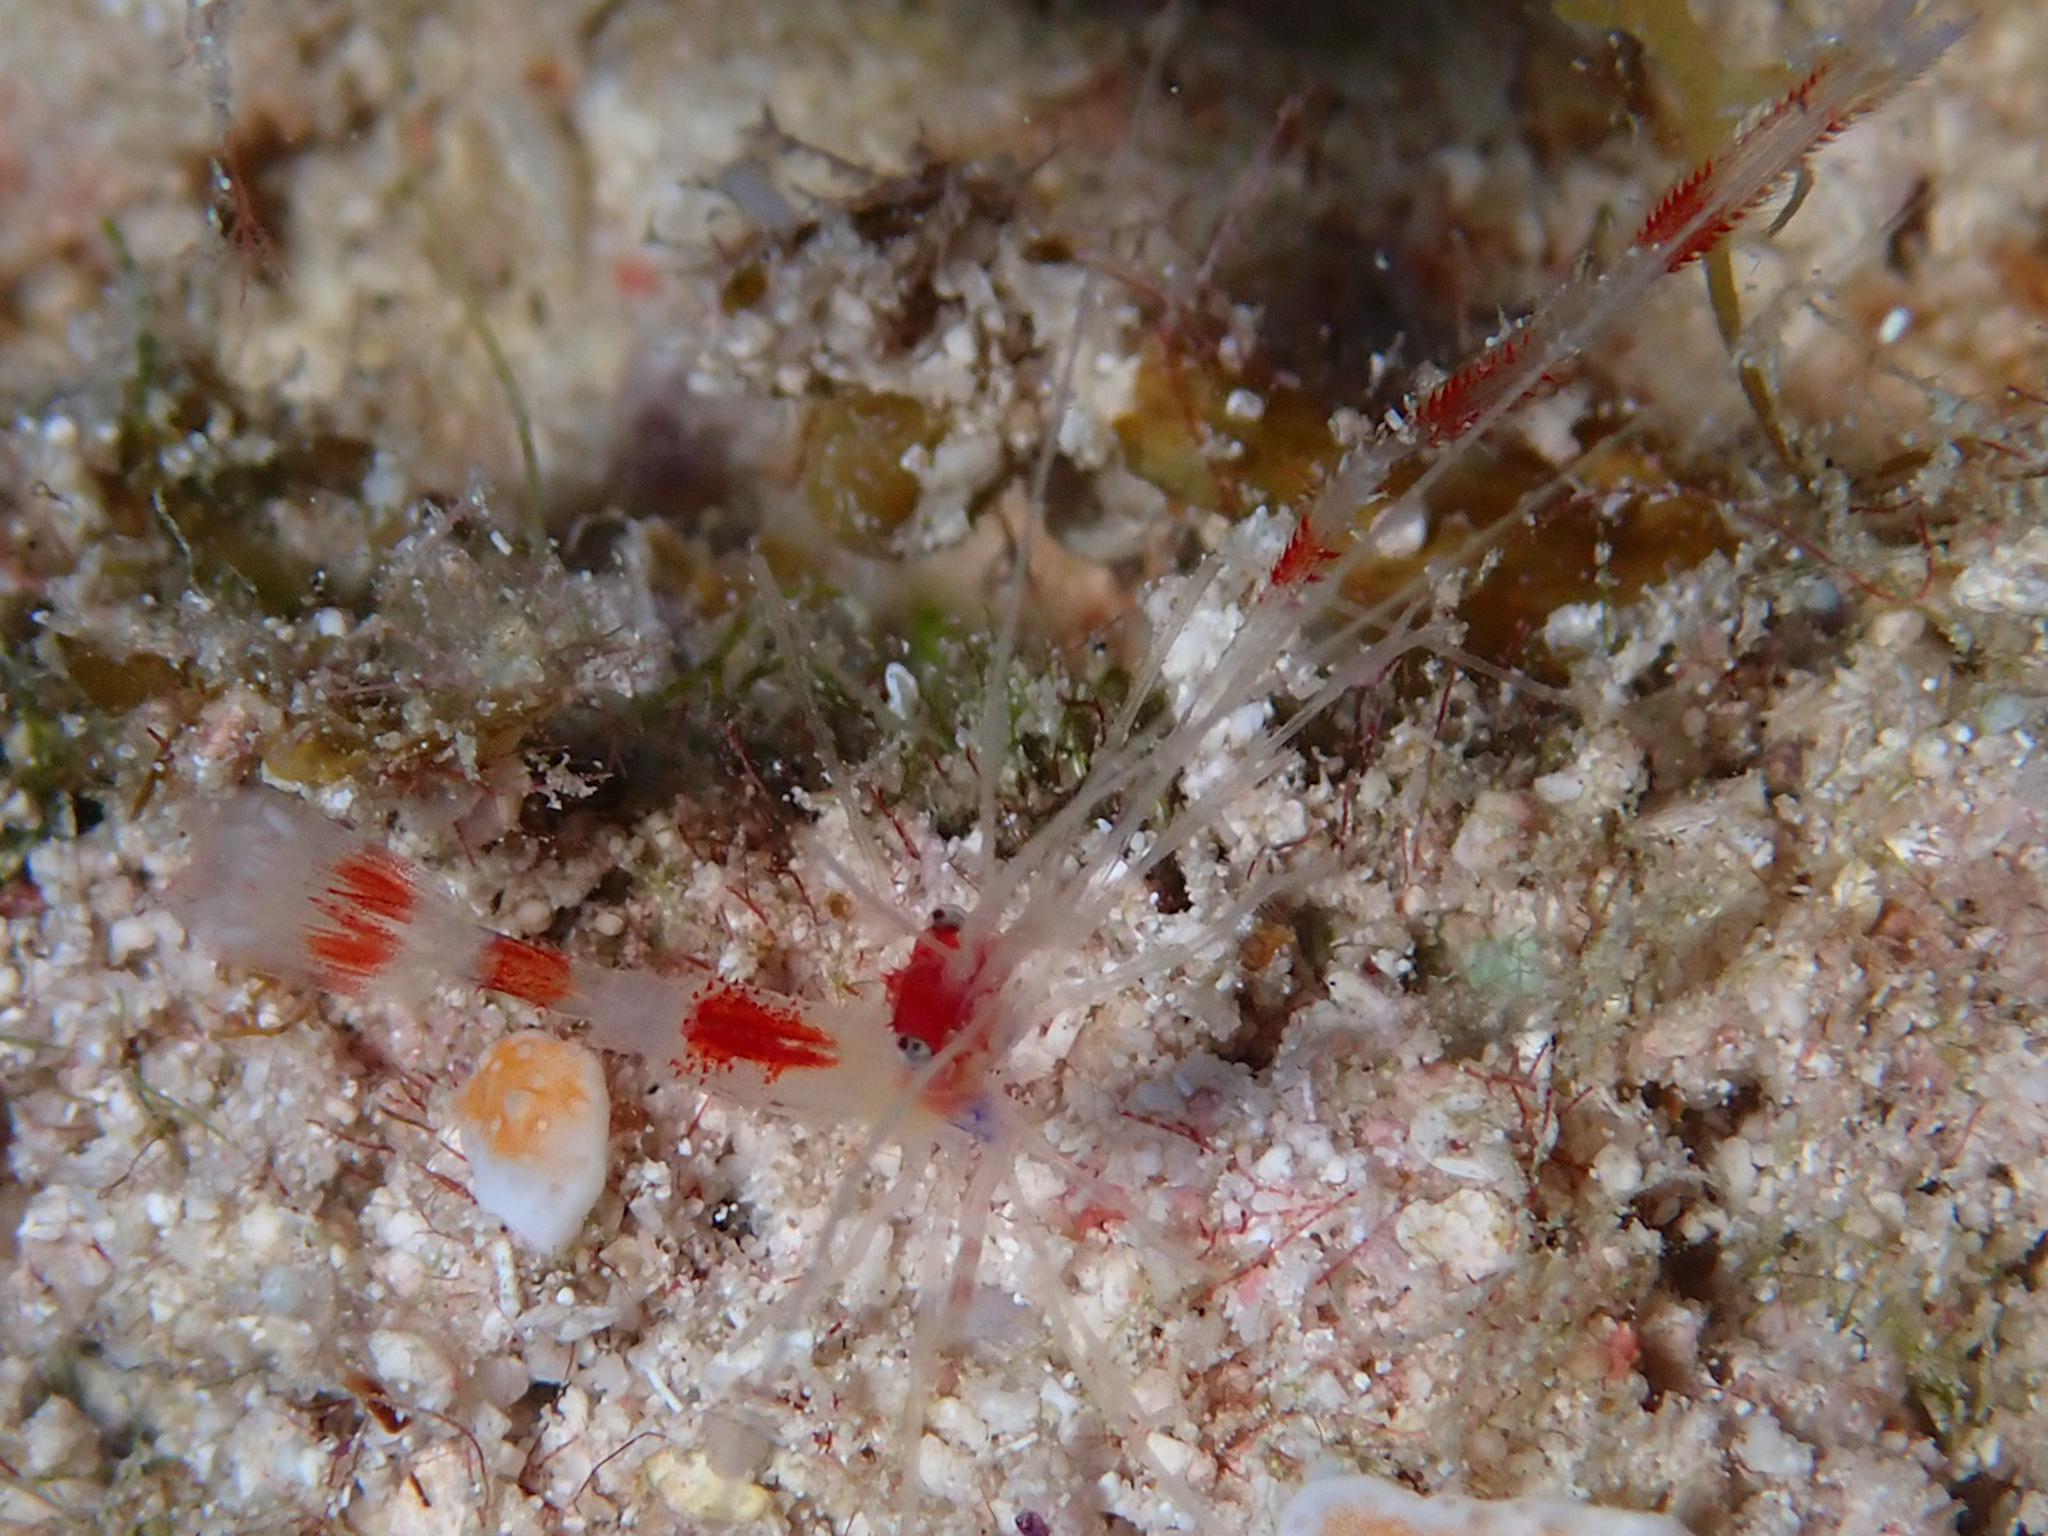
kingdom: Animalia
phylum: Arthropoda
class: Malacostraca
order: Decapoda
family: Stenopodidae
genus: Stenopus
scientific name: Stenopus hispidus
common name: Banded coral shrimp
